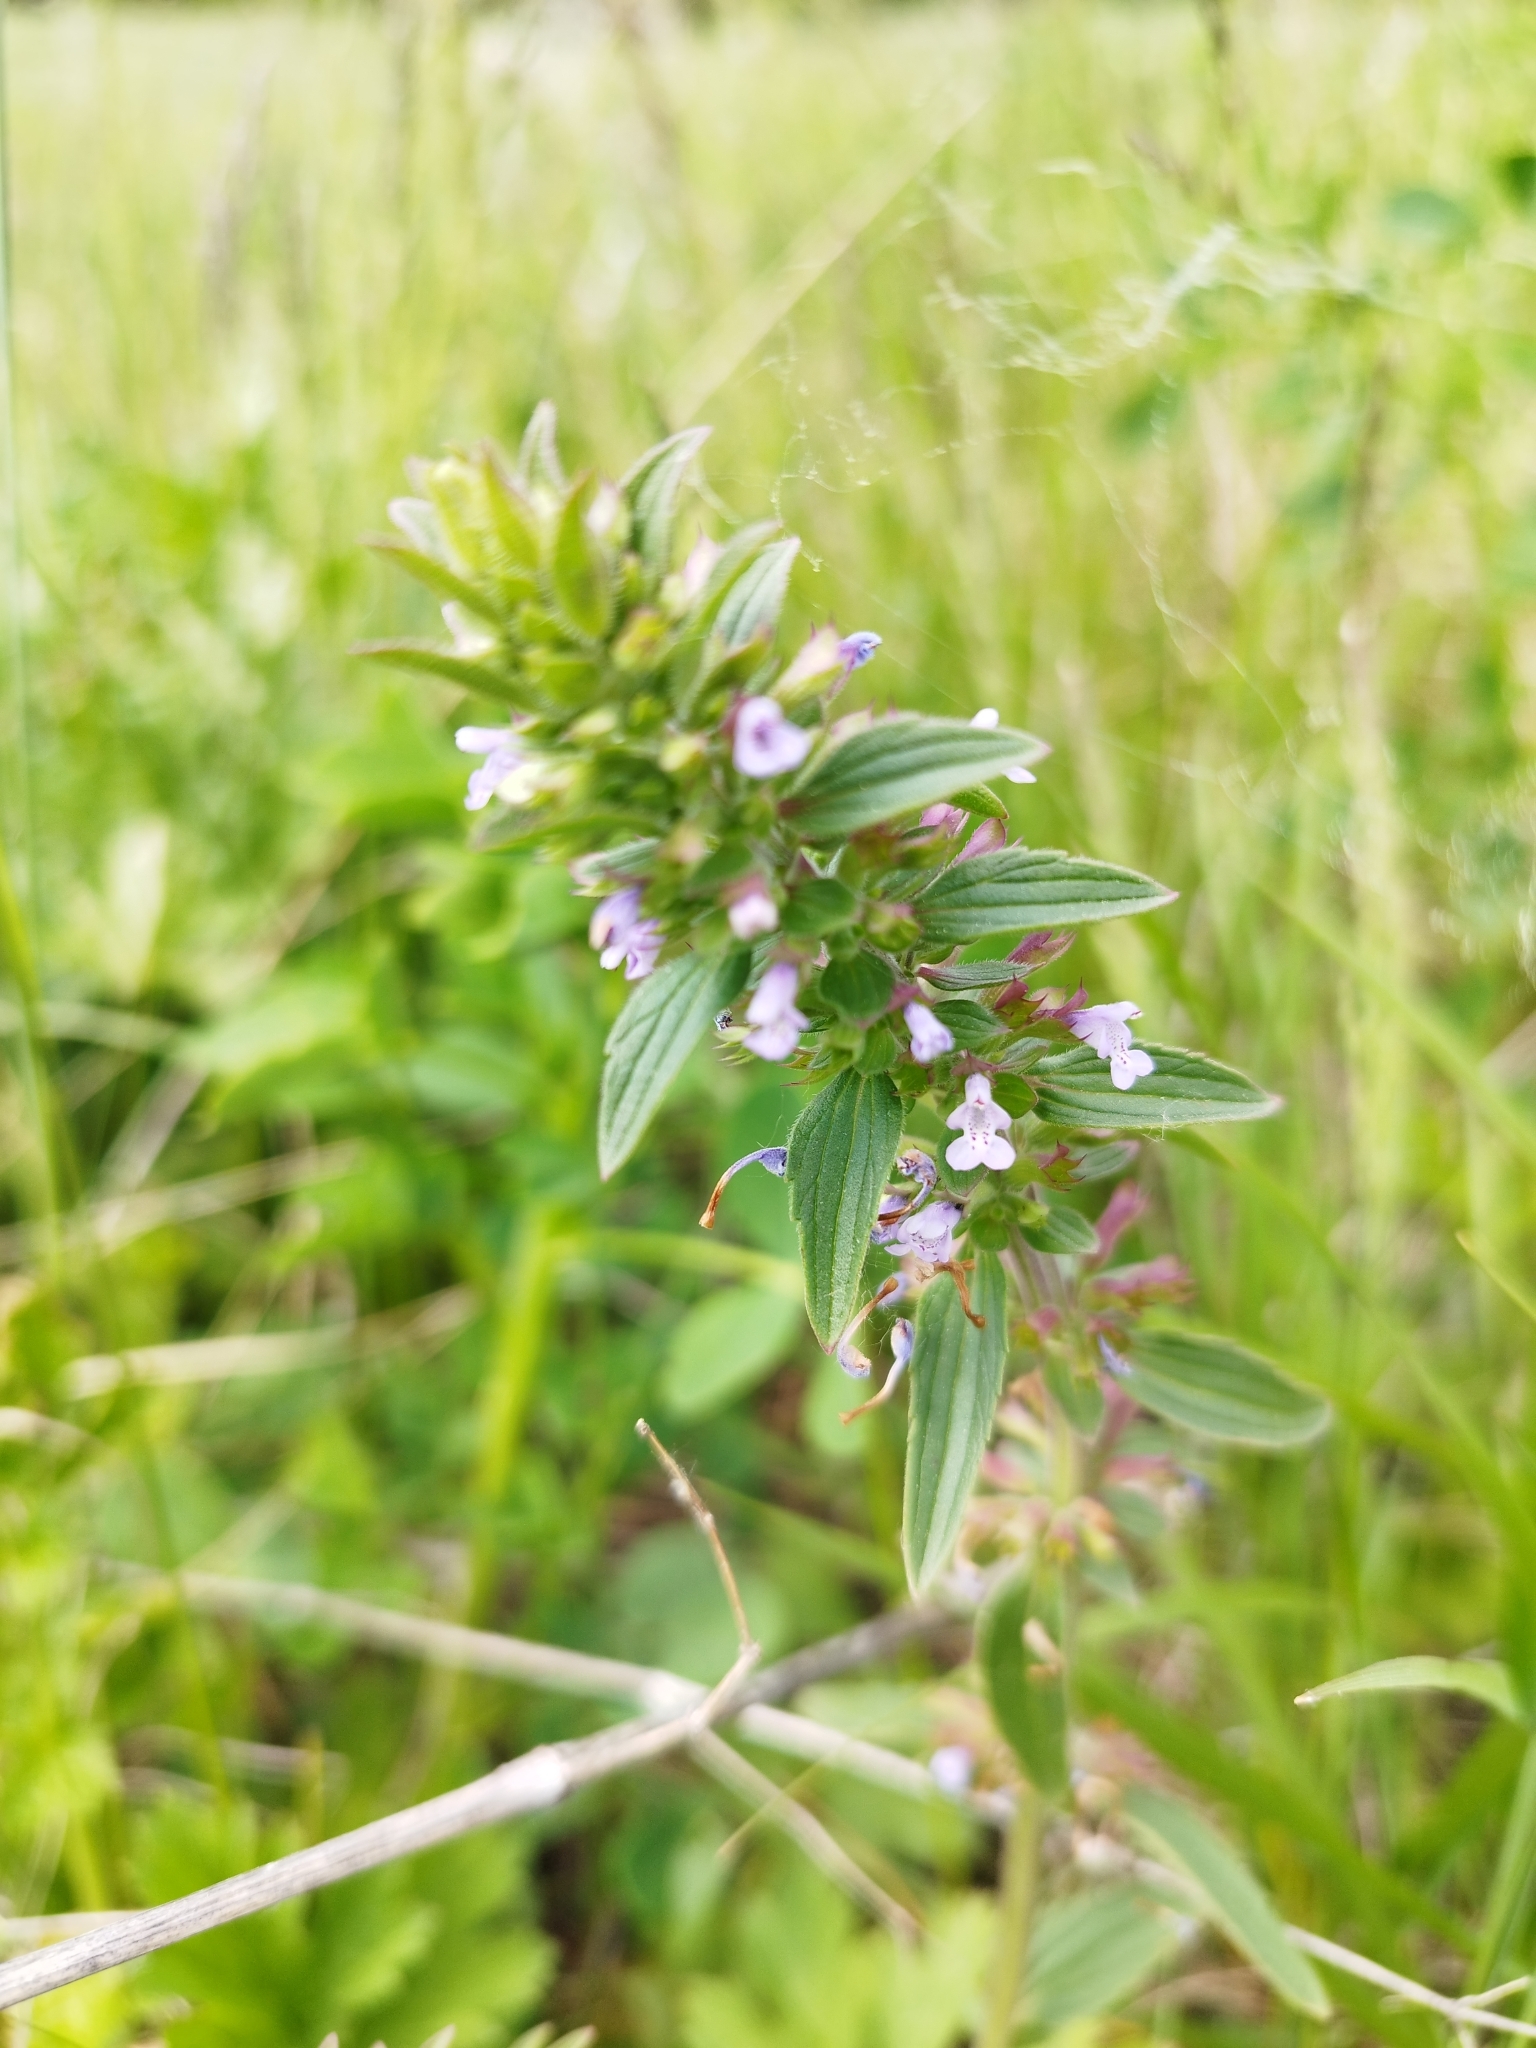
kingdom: Plantae
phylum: Tracheophyta
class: Magnoliopsida
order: Lamiales
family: Lamiaceae
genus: Dracocephalum
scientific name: Dracocephalum thymiflorum
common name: Thymeleaf dragonhead
